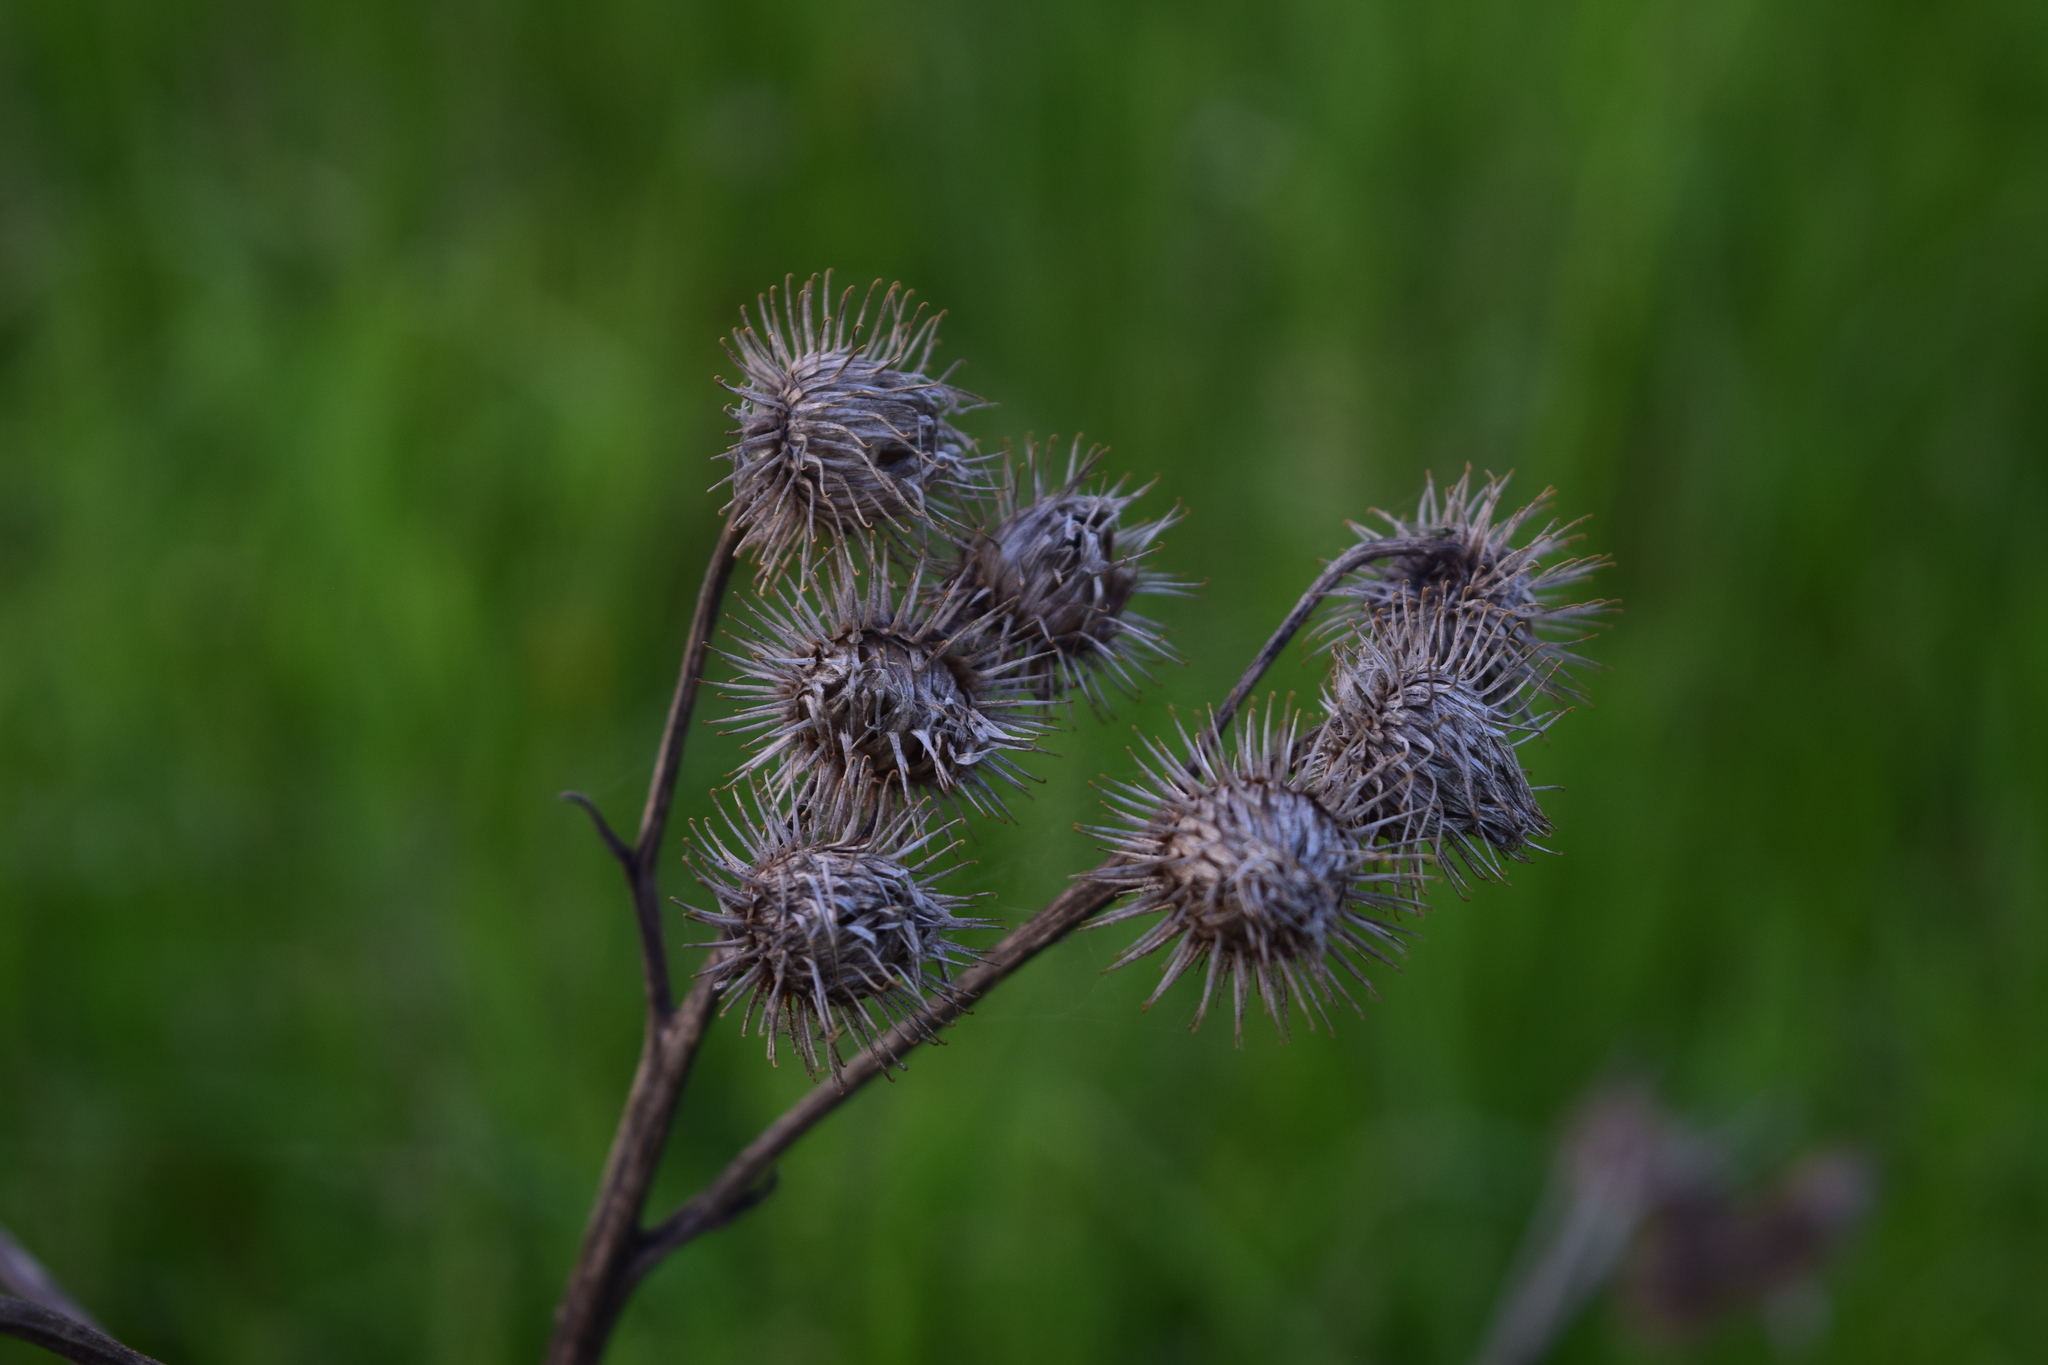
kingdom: Plantae
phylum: Tracheophyta
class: Magnoliopsida
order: Asterales
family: Asteraceae
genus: Arctium
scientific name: Arctium tomentosum
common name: Woolly burdock
